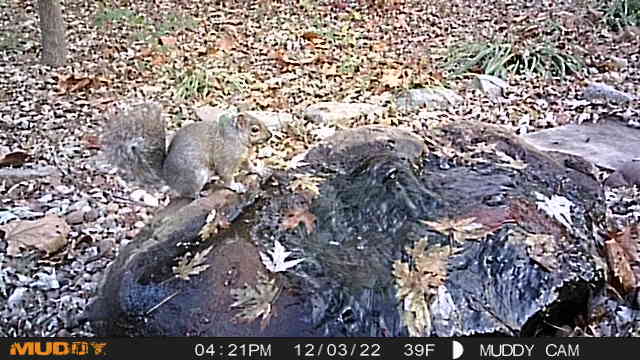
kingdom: Animalia
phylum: Chordata
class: Mammalia
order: Rodentia
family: Sciuridae
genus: Sciurus
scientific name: Sciurus carolinensis
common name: Eastern gray squirrel
